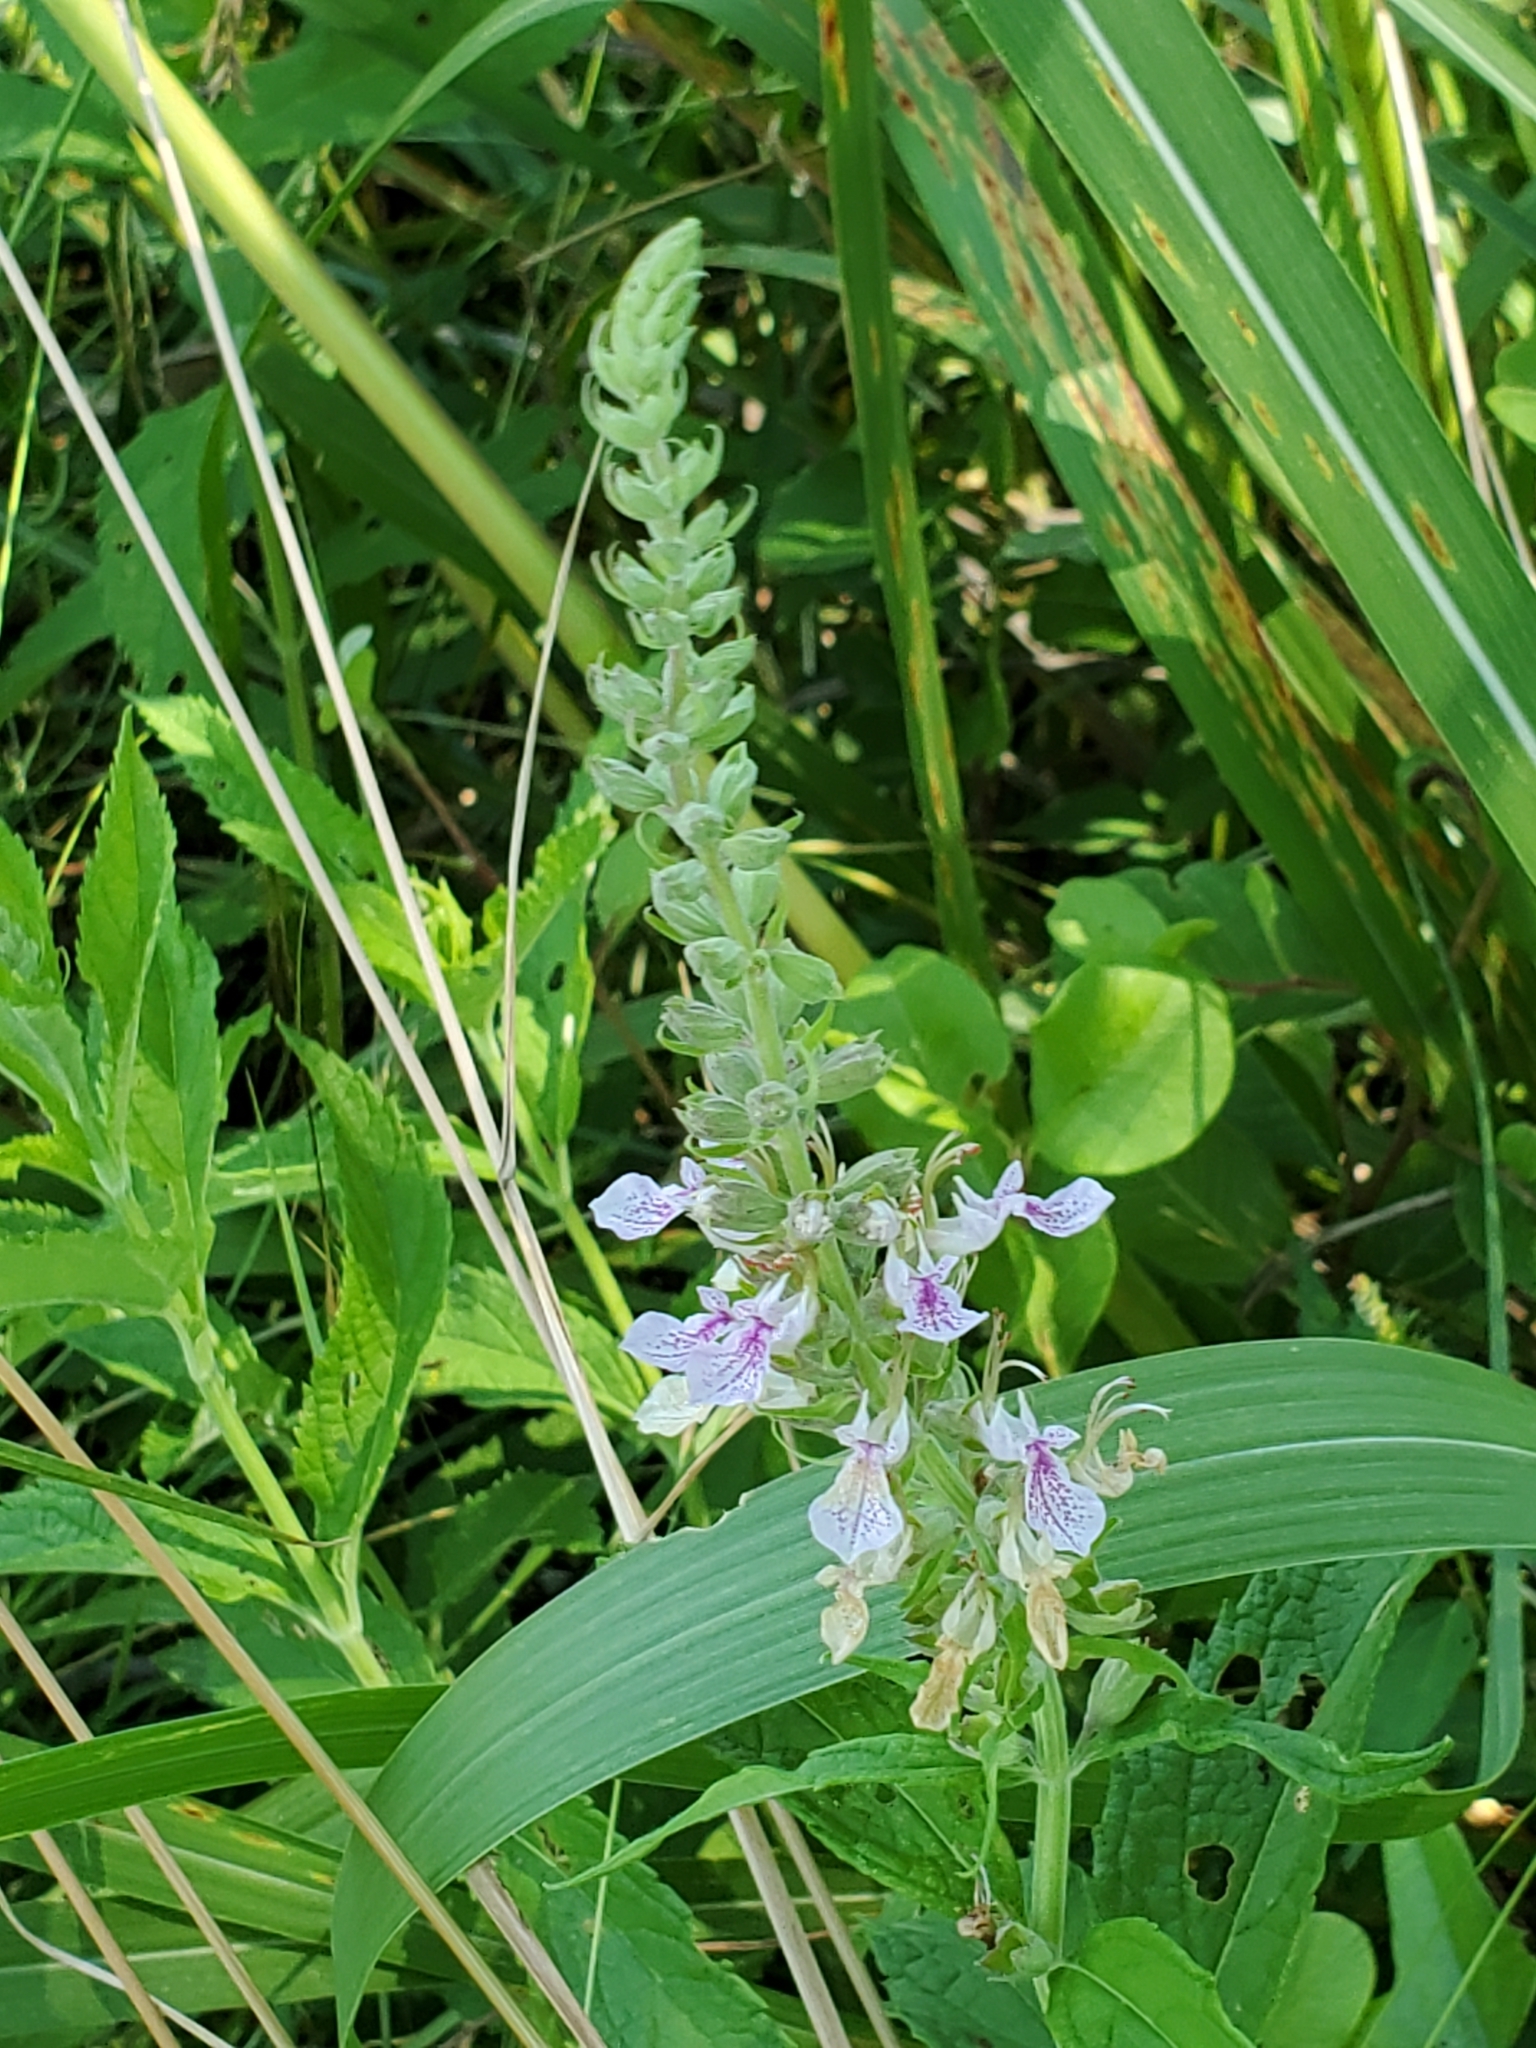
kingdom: Plantae
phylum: Tracheophyta
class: Magnoliopsida
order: Lamiales
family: Lamiaceae
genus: Teucrium
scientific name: Teucrium canadense
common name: American germander
